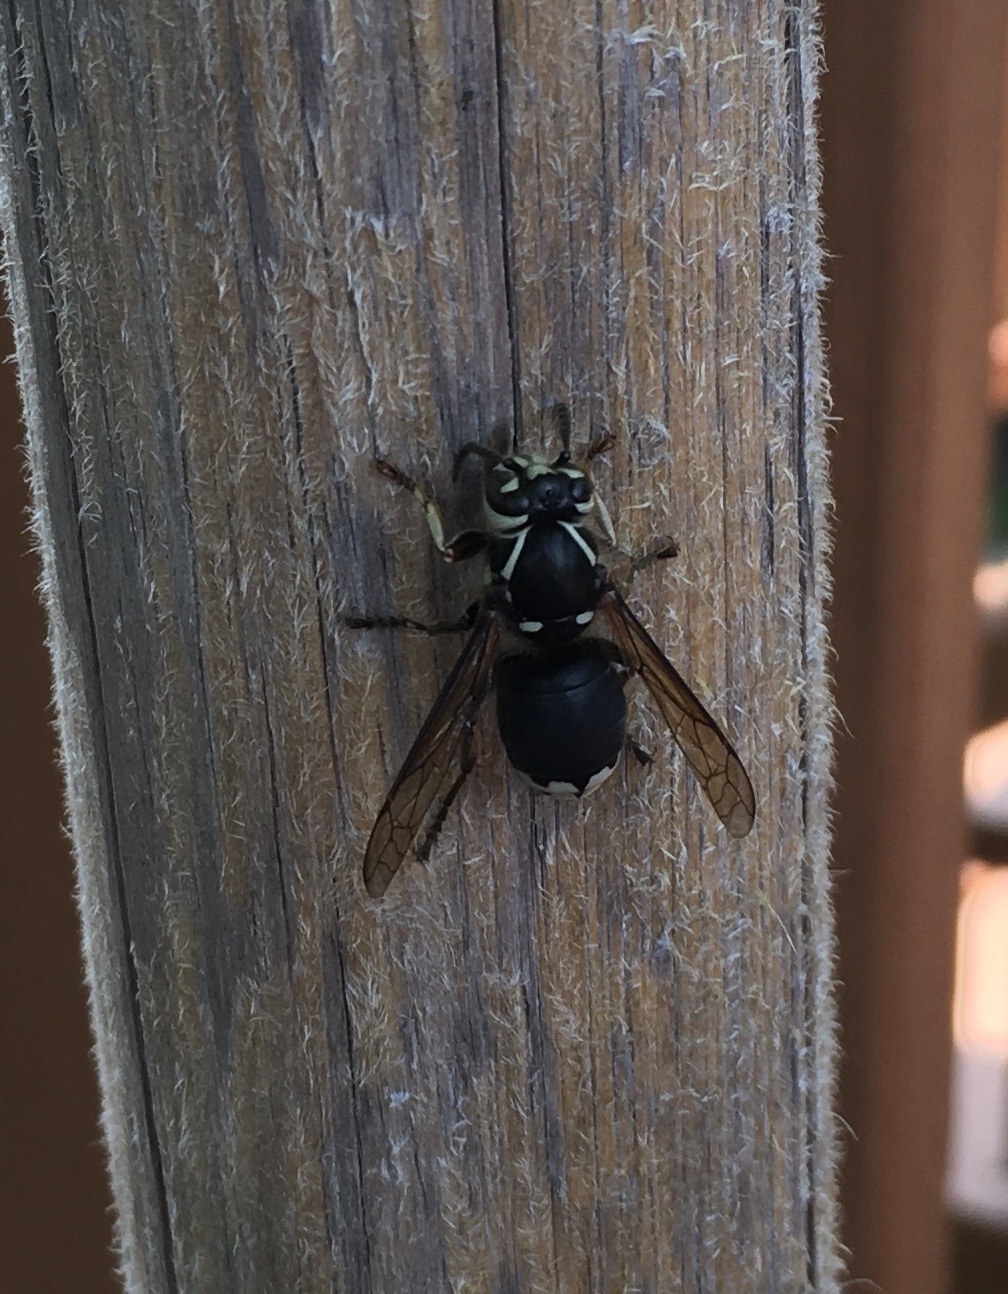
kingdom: Animalia
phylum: Arthropoda
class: Insecta
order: Hymenoptera
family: Vespidae
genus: Dolichovespula
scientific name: Dolichovespula maculata
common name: Bald-faced hornet
